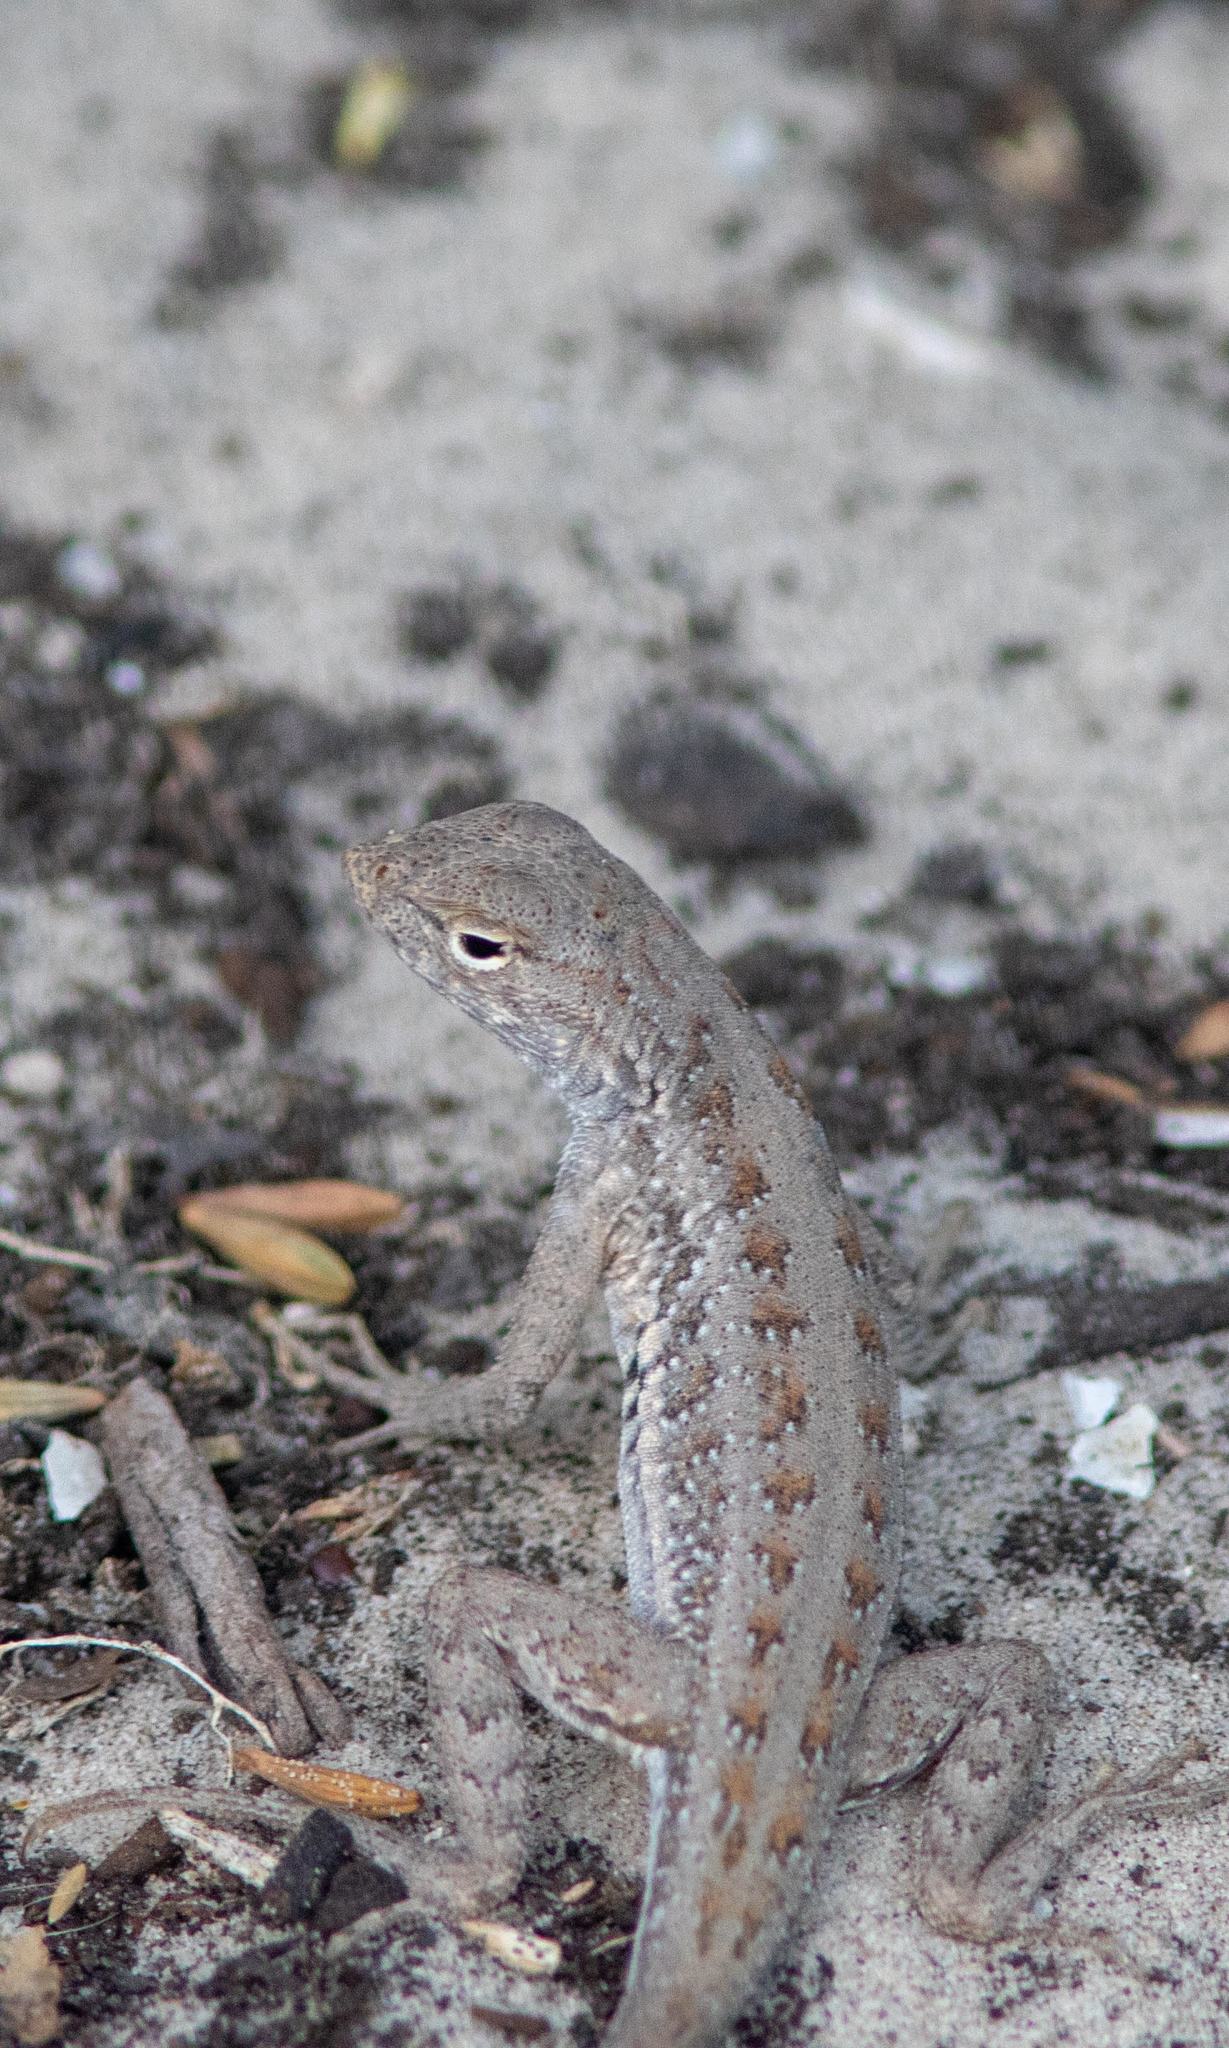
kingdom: Animalia
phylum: Chordata
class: Squamata
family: Phrynosomatidae
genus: Holbrookia
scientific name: Holbrookia propinqua
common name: Keeled earless lizard
